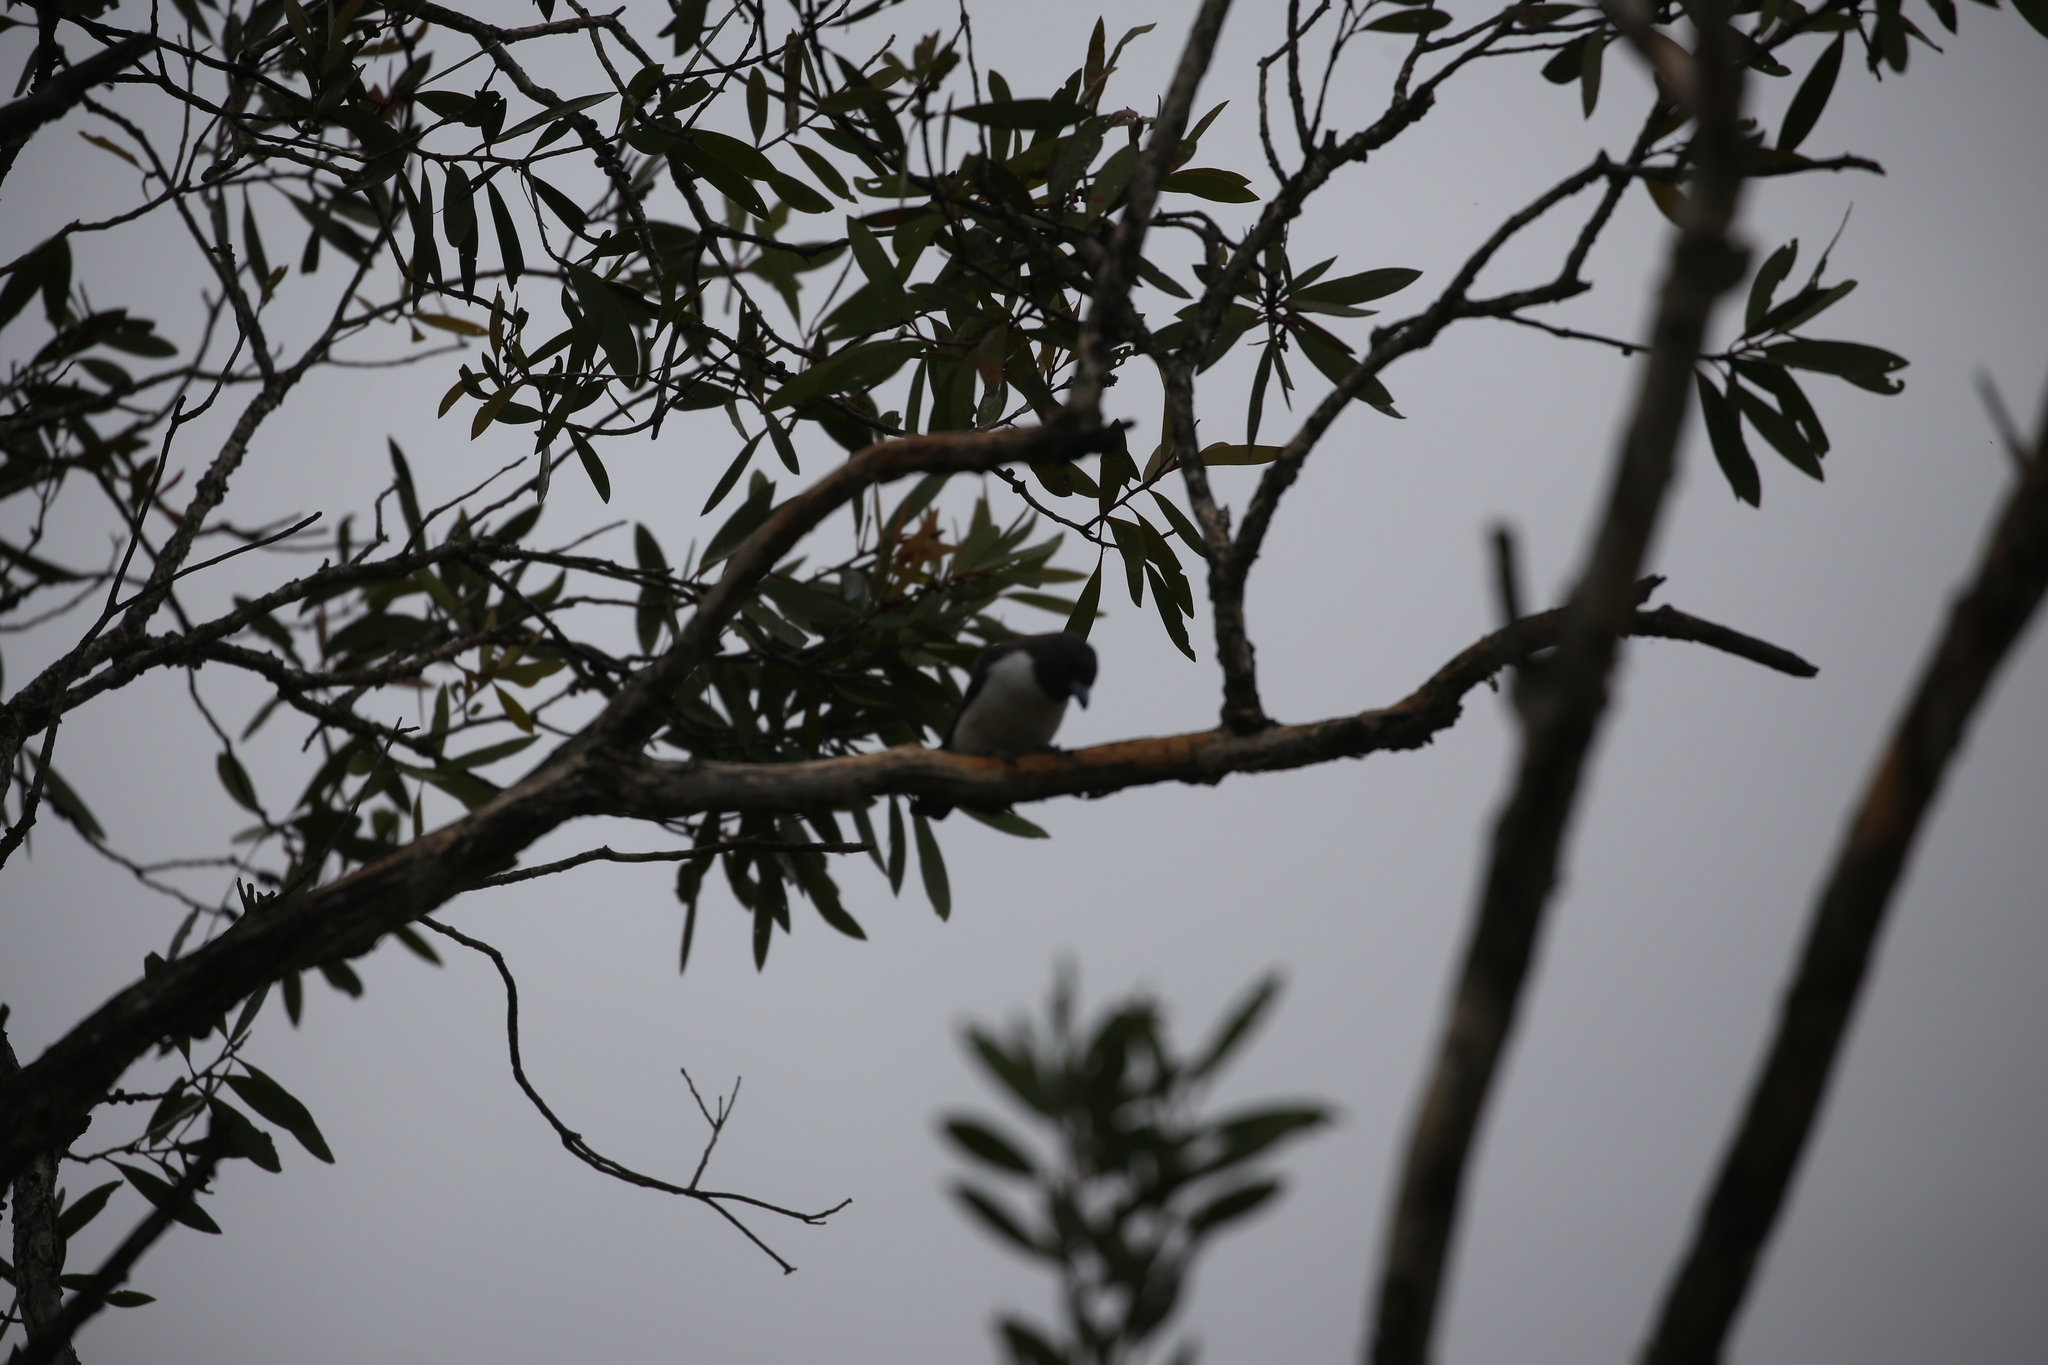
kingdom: Animalia
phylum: Chordata
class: Aves
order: Passeriformes
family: Artamidae
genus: Artamus
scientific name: Artamus leucoryn
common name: White-breasted woodswallow
